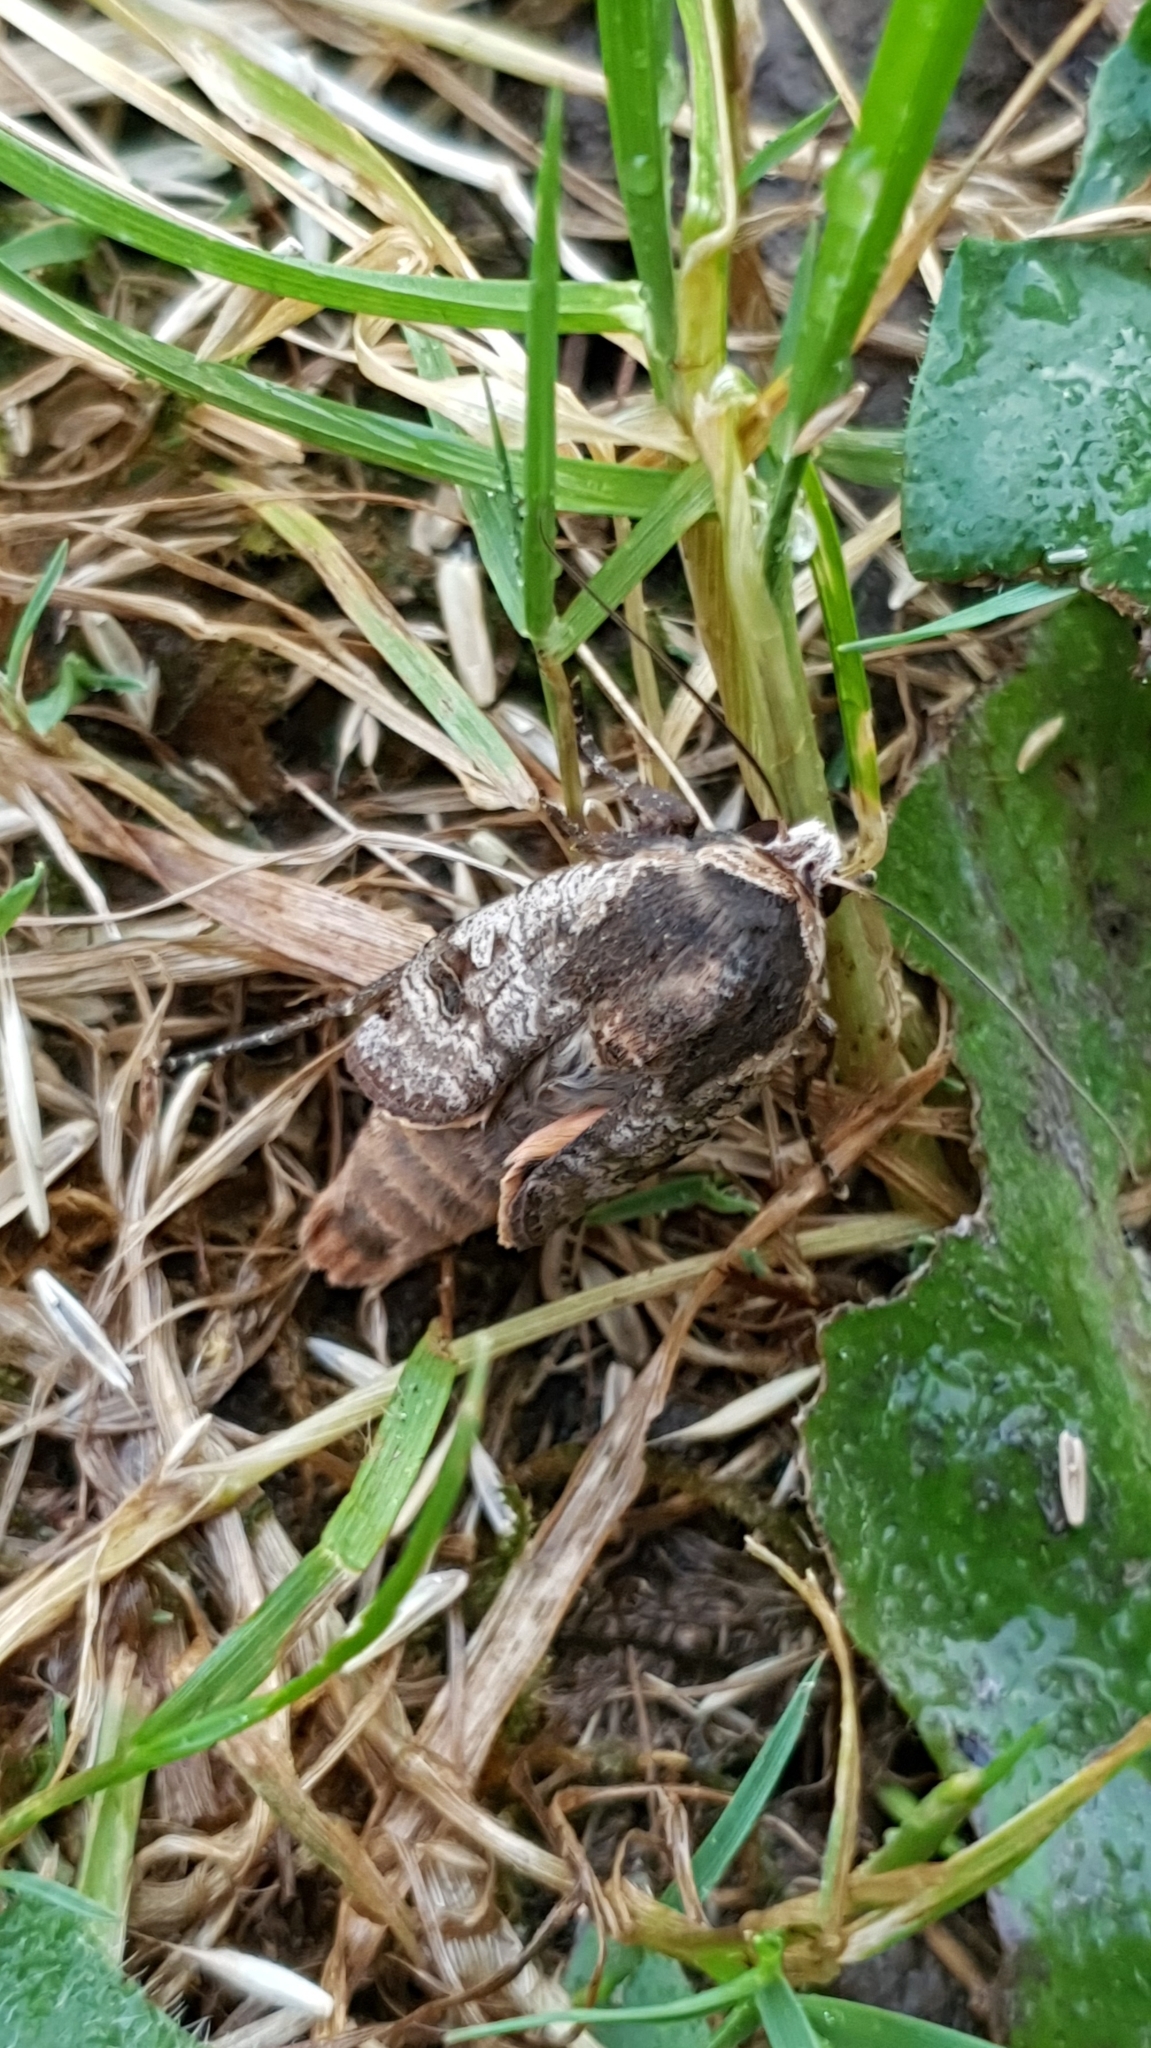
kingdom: Animalia
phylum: Arthropoda
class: Insecta
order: Lepidoptera
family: Noctuidae
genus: Noctua
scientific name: Noctua pronuba
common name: Large yellow underwing
